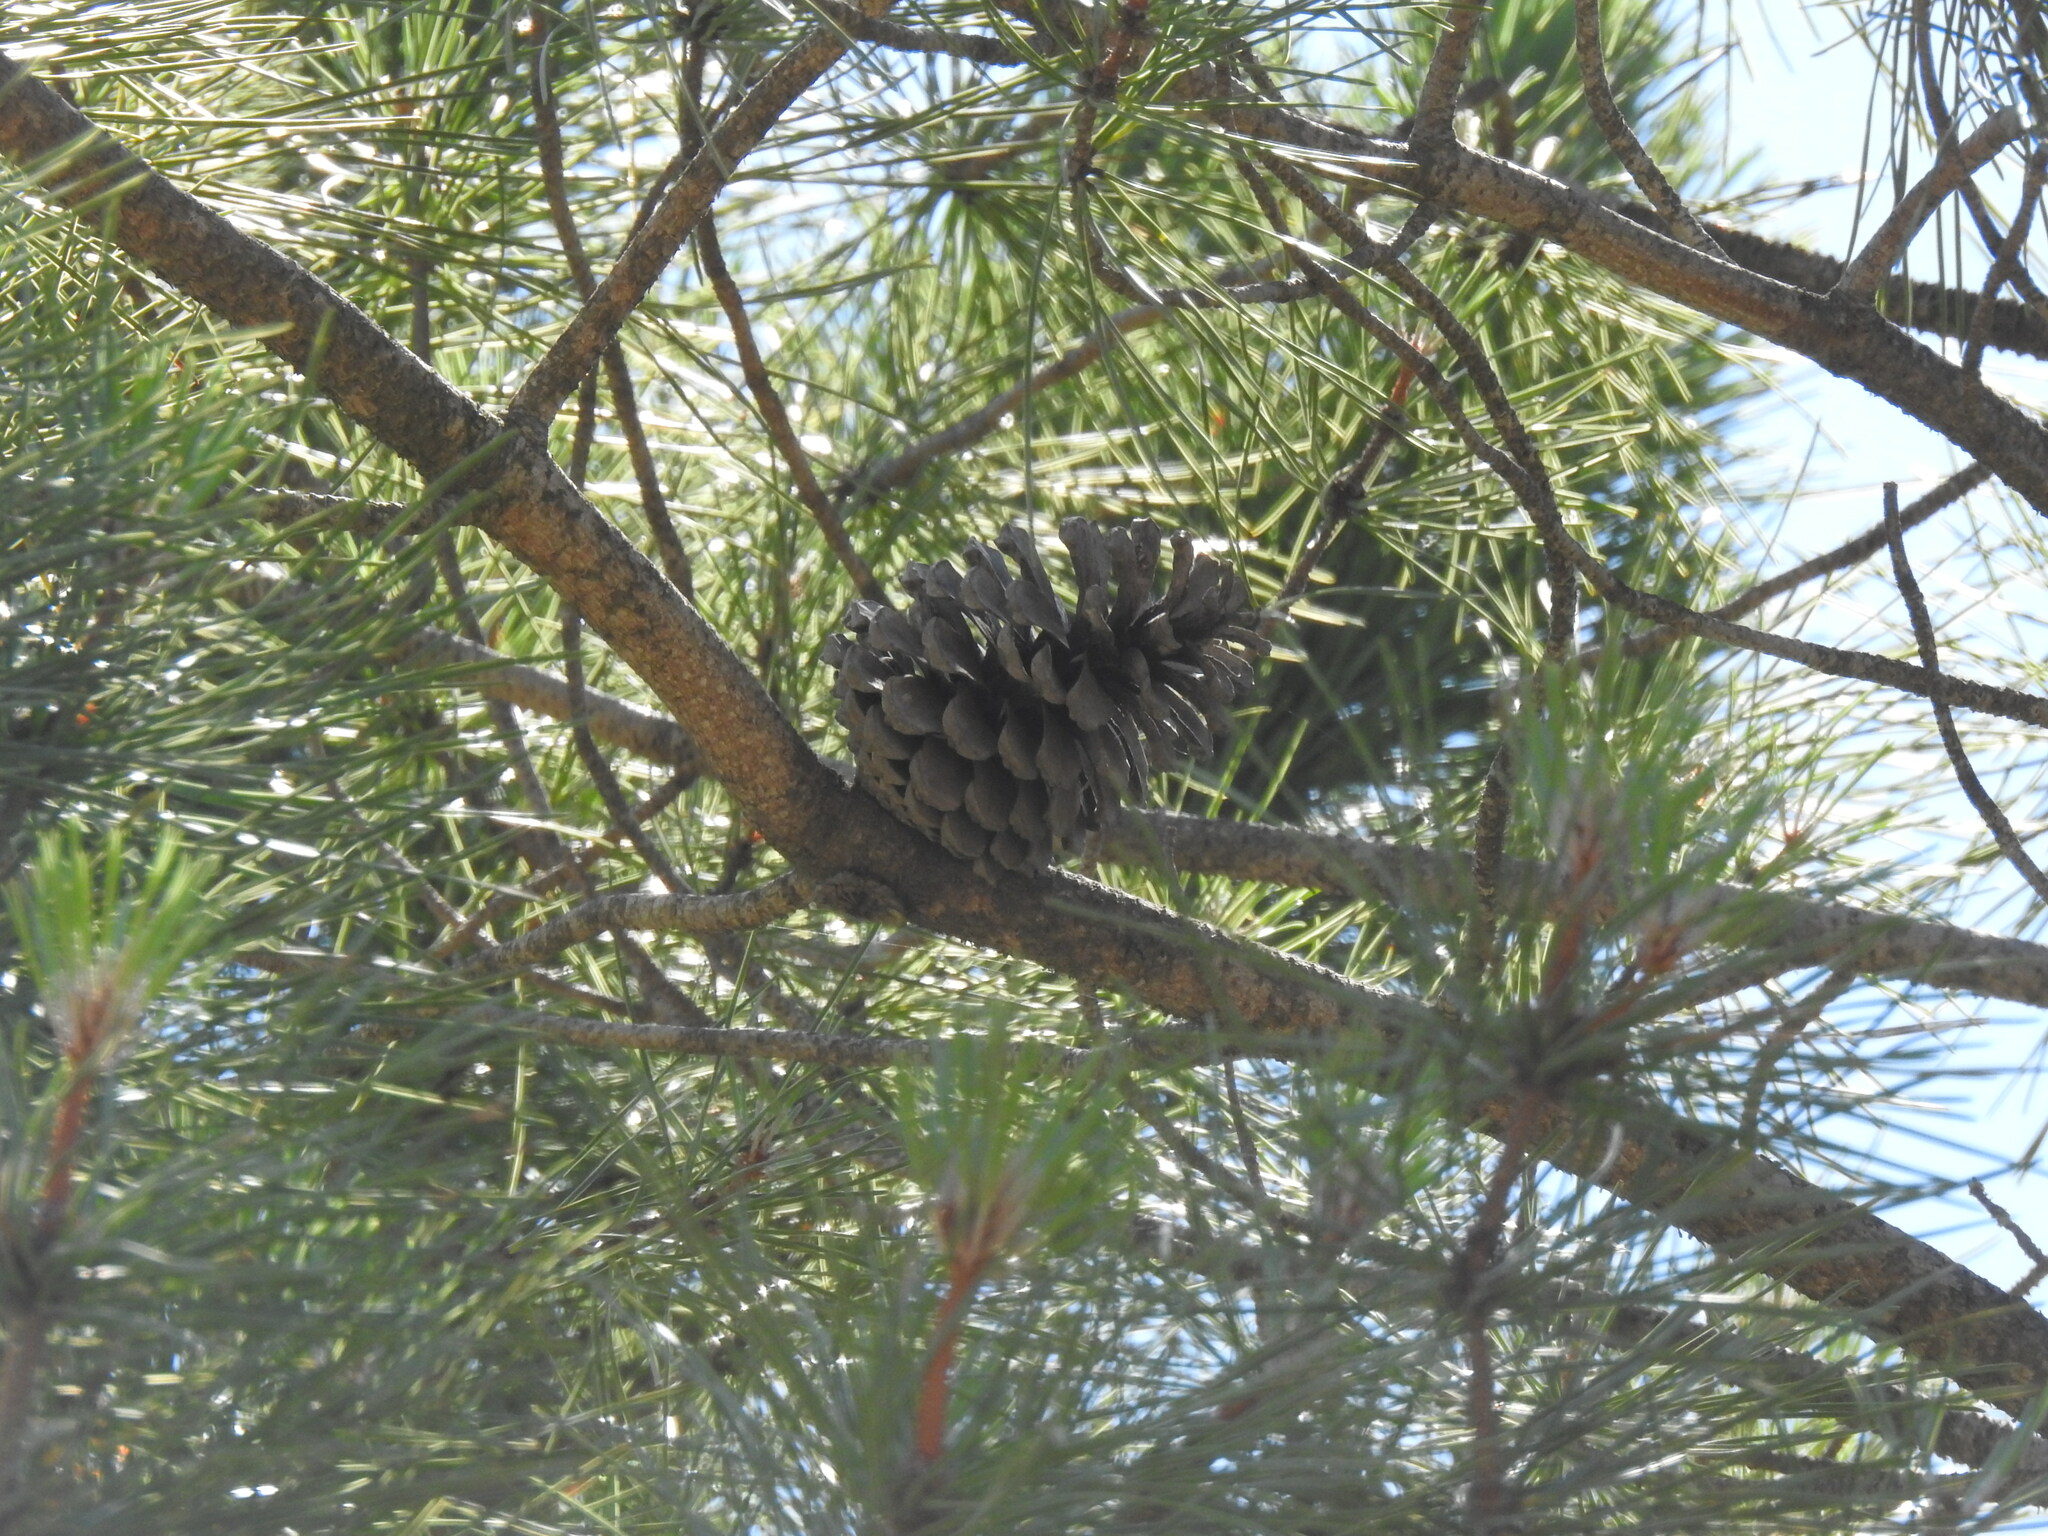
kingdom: Plantae
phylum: Tracheophyta
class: Pinopsida
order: Pinales
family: Pinaceae
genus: Pinus
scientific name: Pinus pinaster
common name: Maritime pine
